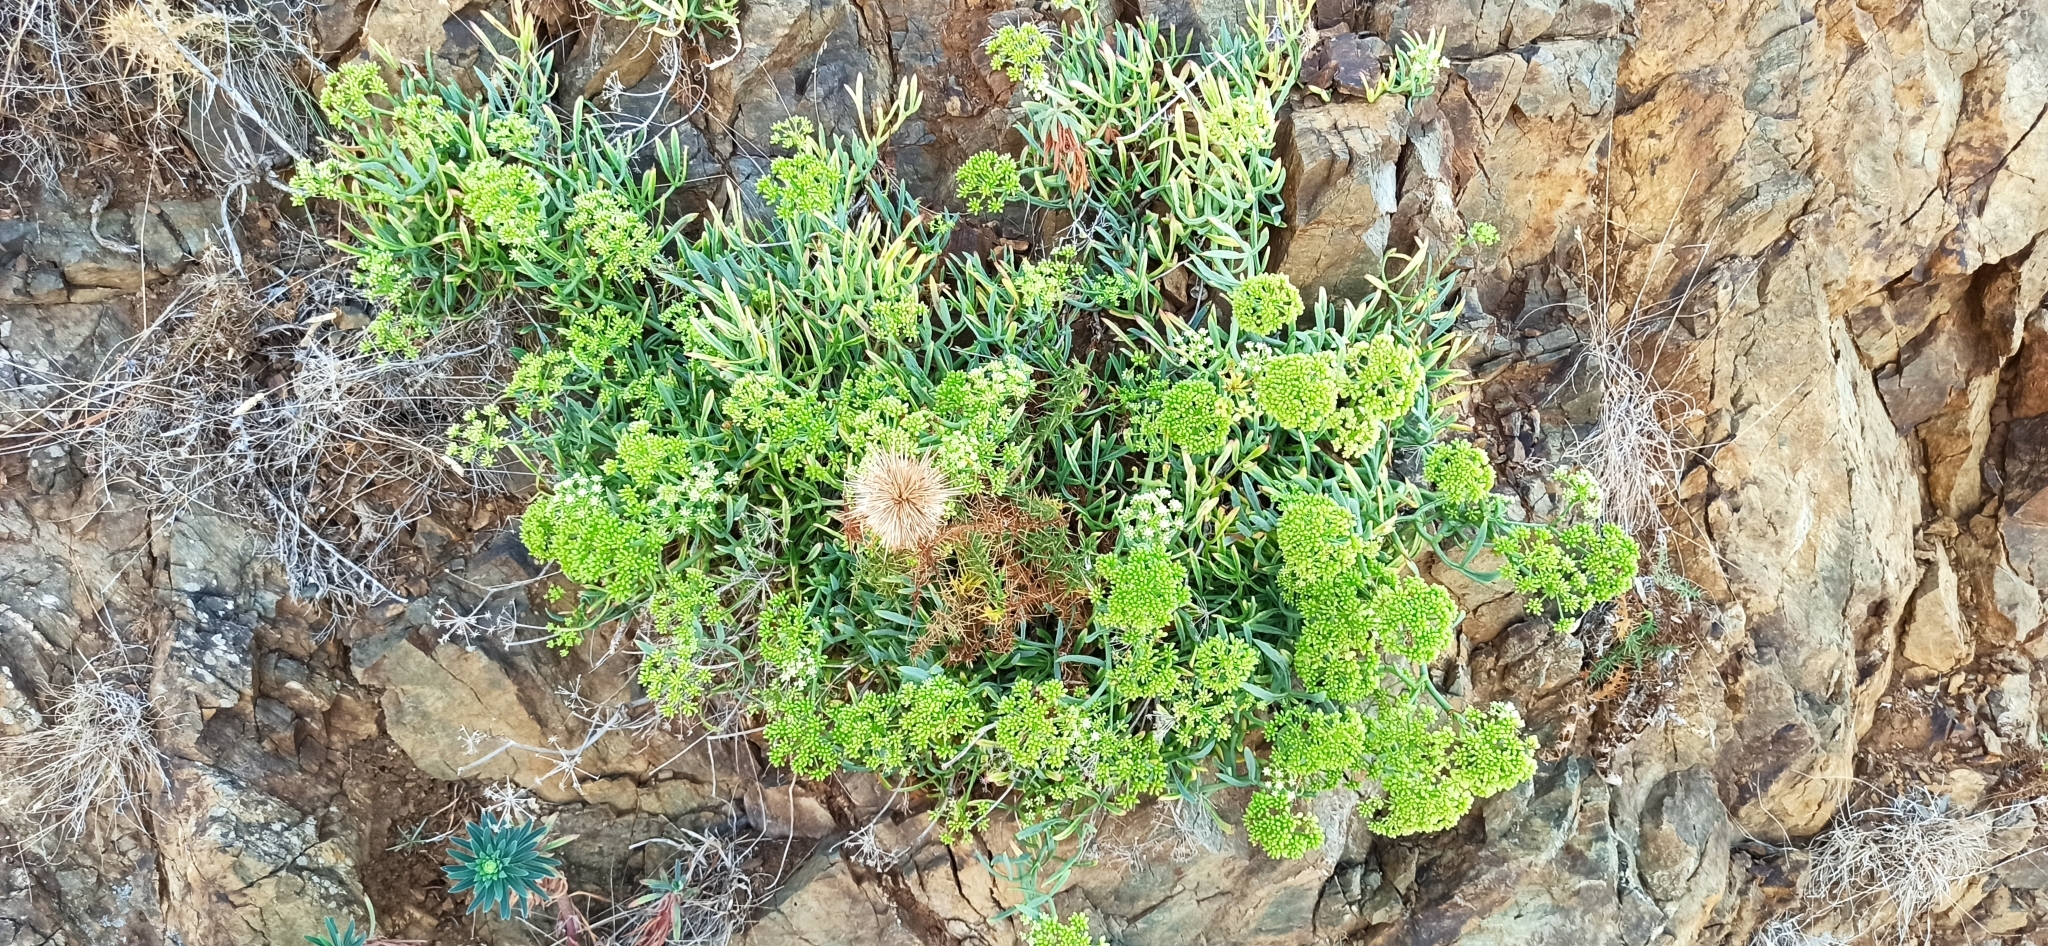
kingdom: Plantae
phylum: Tracheophyta
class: Magnoliopsida
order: Apiales
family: Apiaceae
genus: Crithmum
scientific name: Crithmum maritimum
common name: Rock samphire
